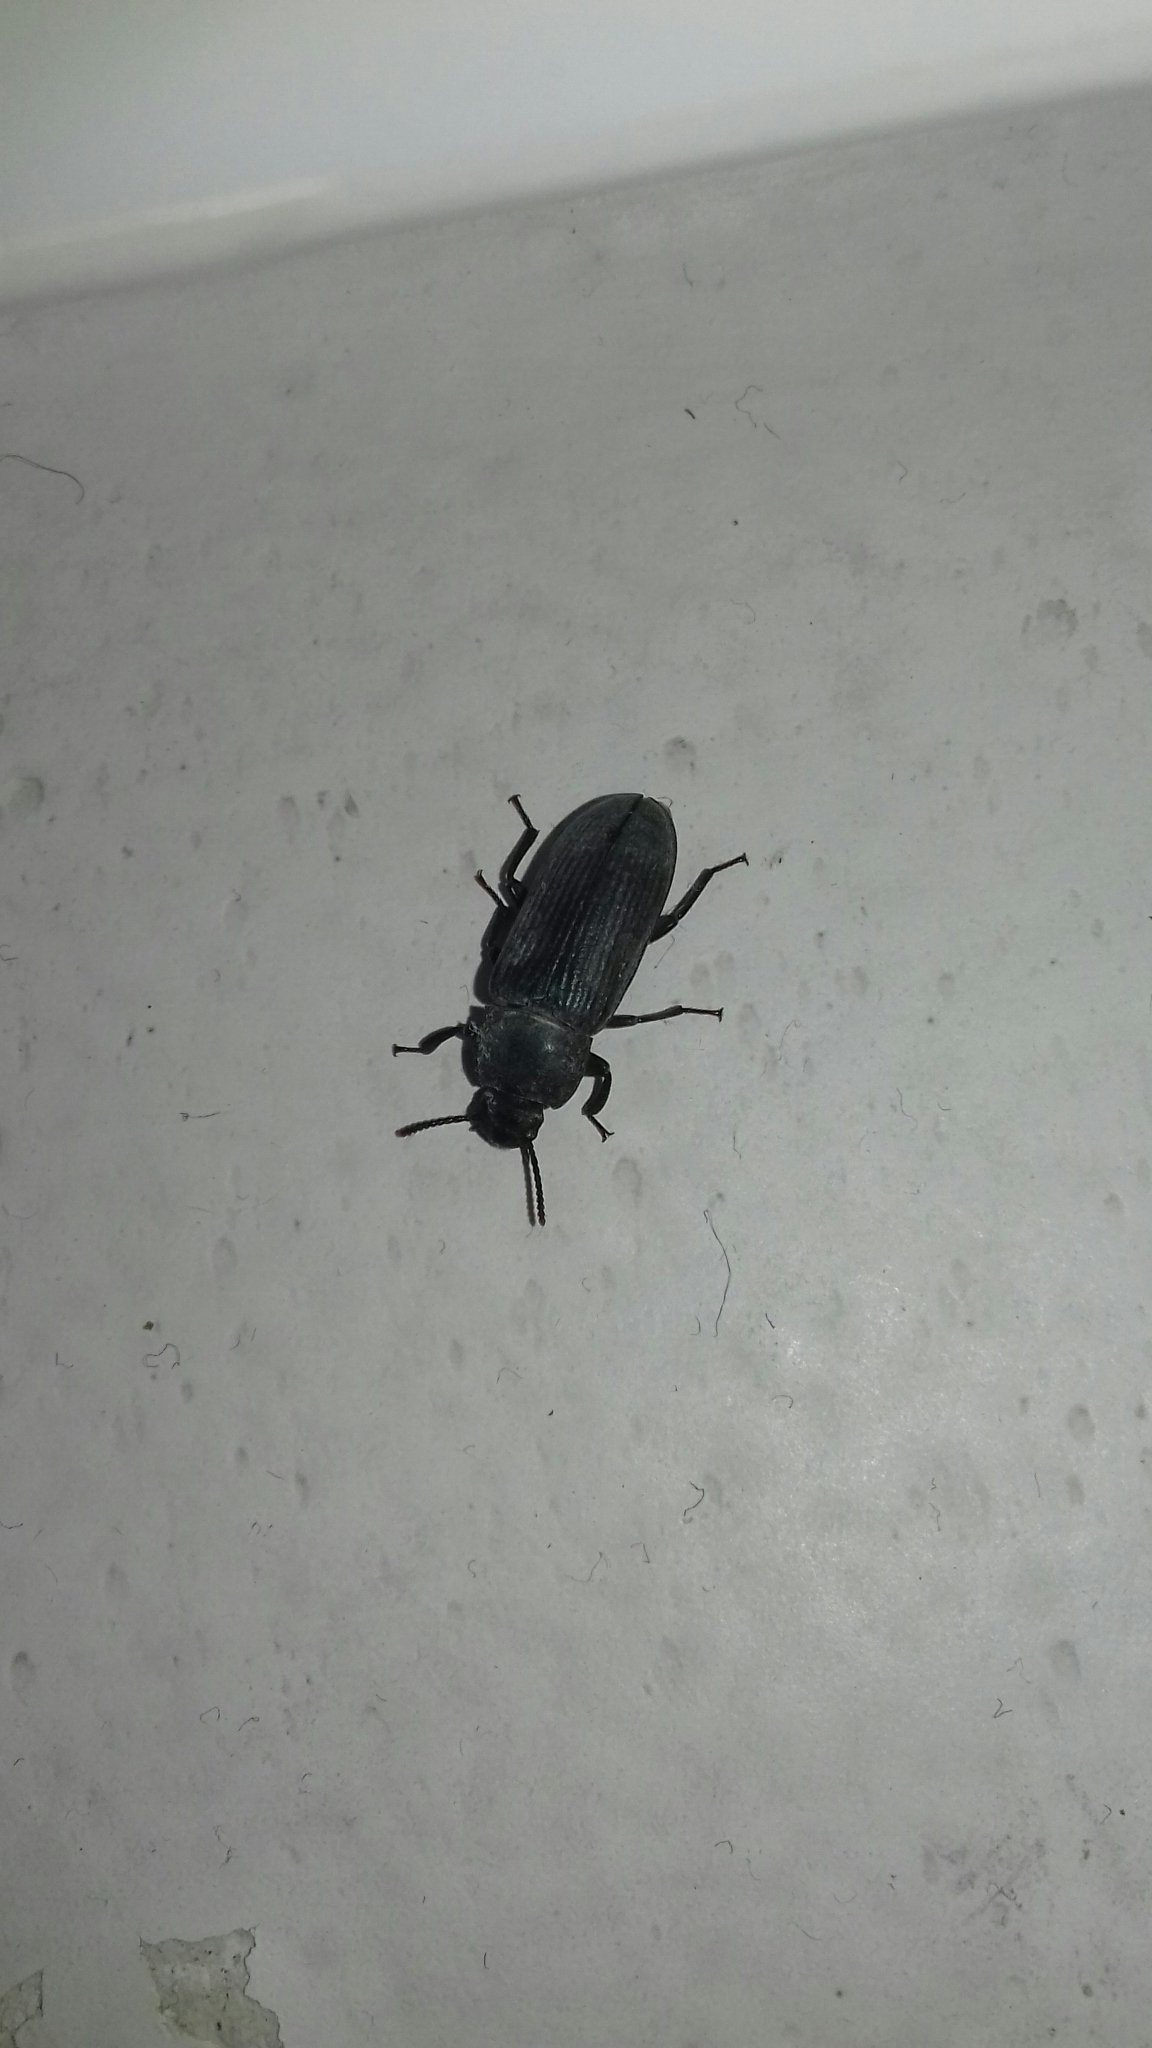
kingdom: Animalia
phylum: Arthropoda
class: Insecta
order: Coleoptera
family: Tenebrionidae
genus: Tenebrio
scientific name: Tenebrio molitor
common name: Hardback beetle
